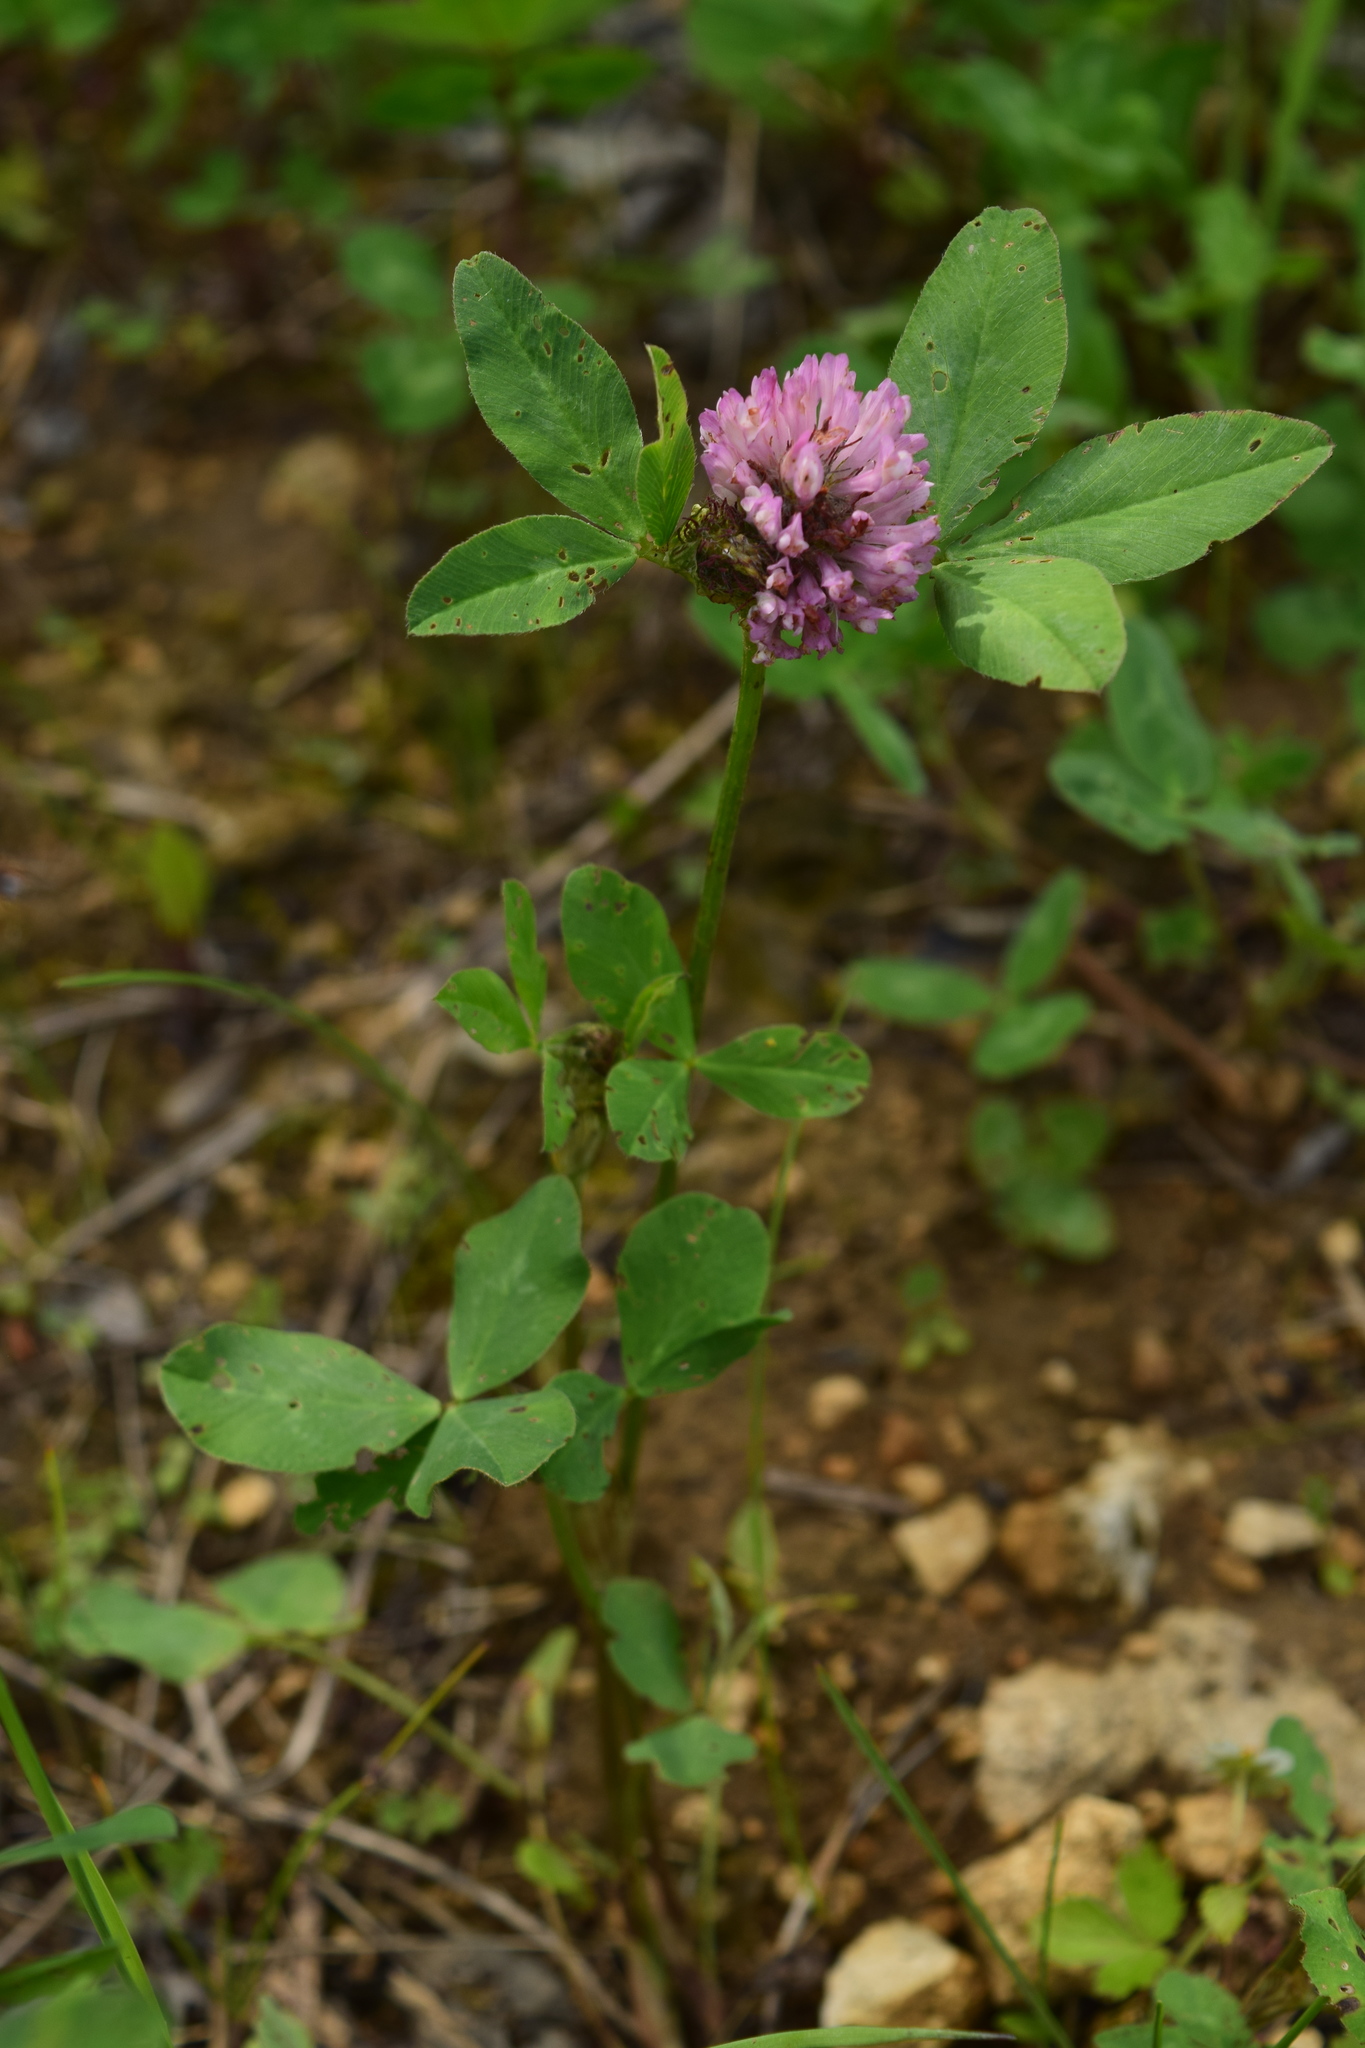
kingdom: Plantae
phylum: Tracheophyta
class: Magnoliopsida
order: Fabales
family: Fabaceae
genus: Trifolium
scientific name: Trifolium pratense
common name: Red clover
